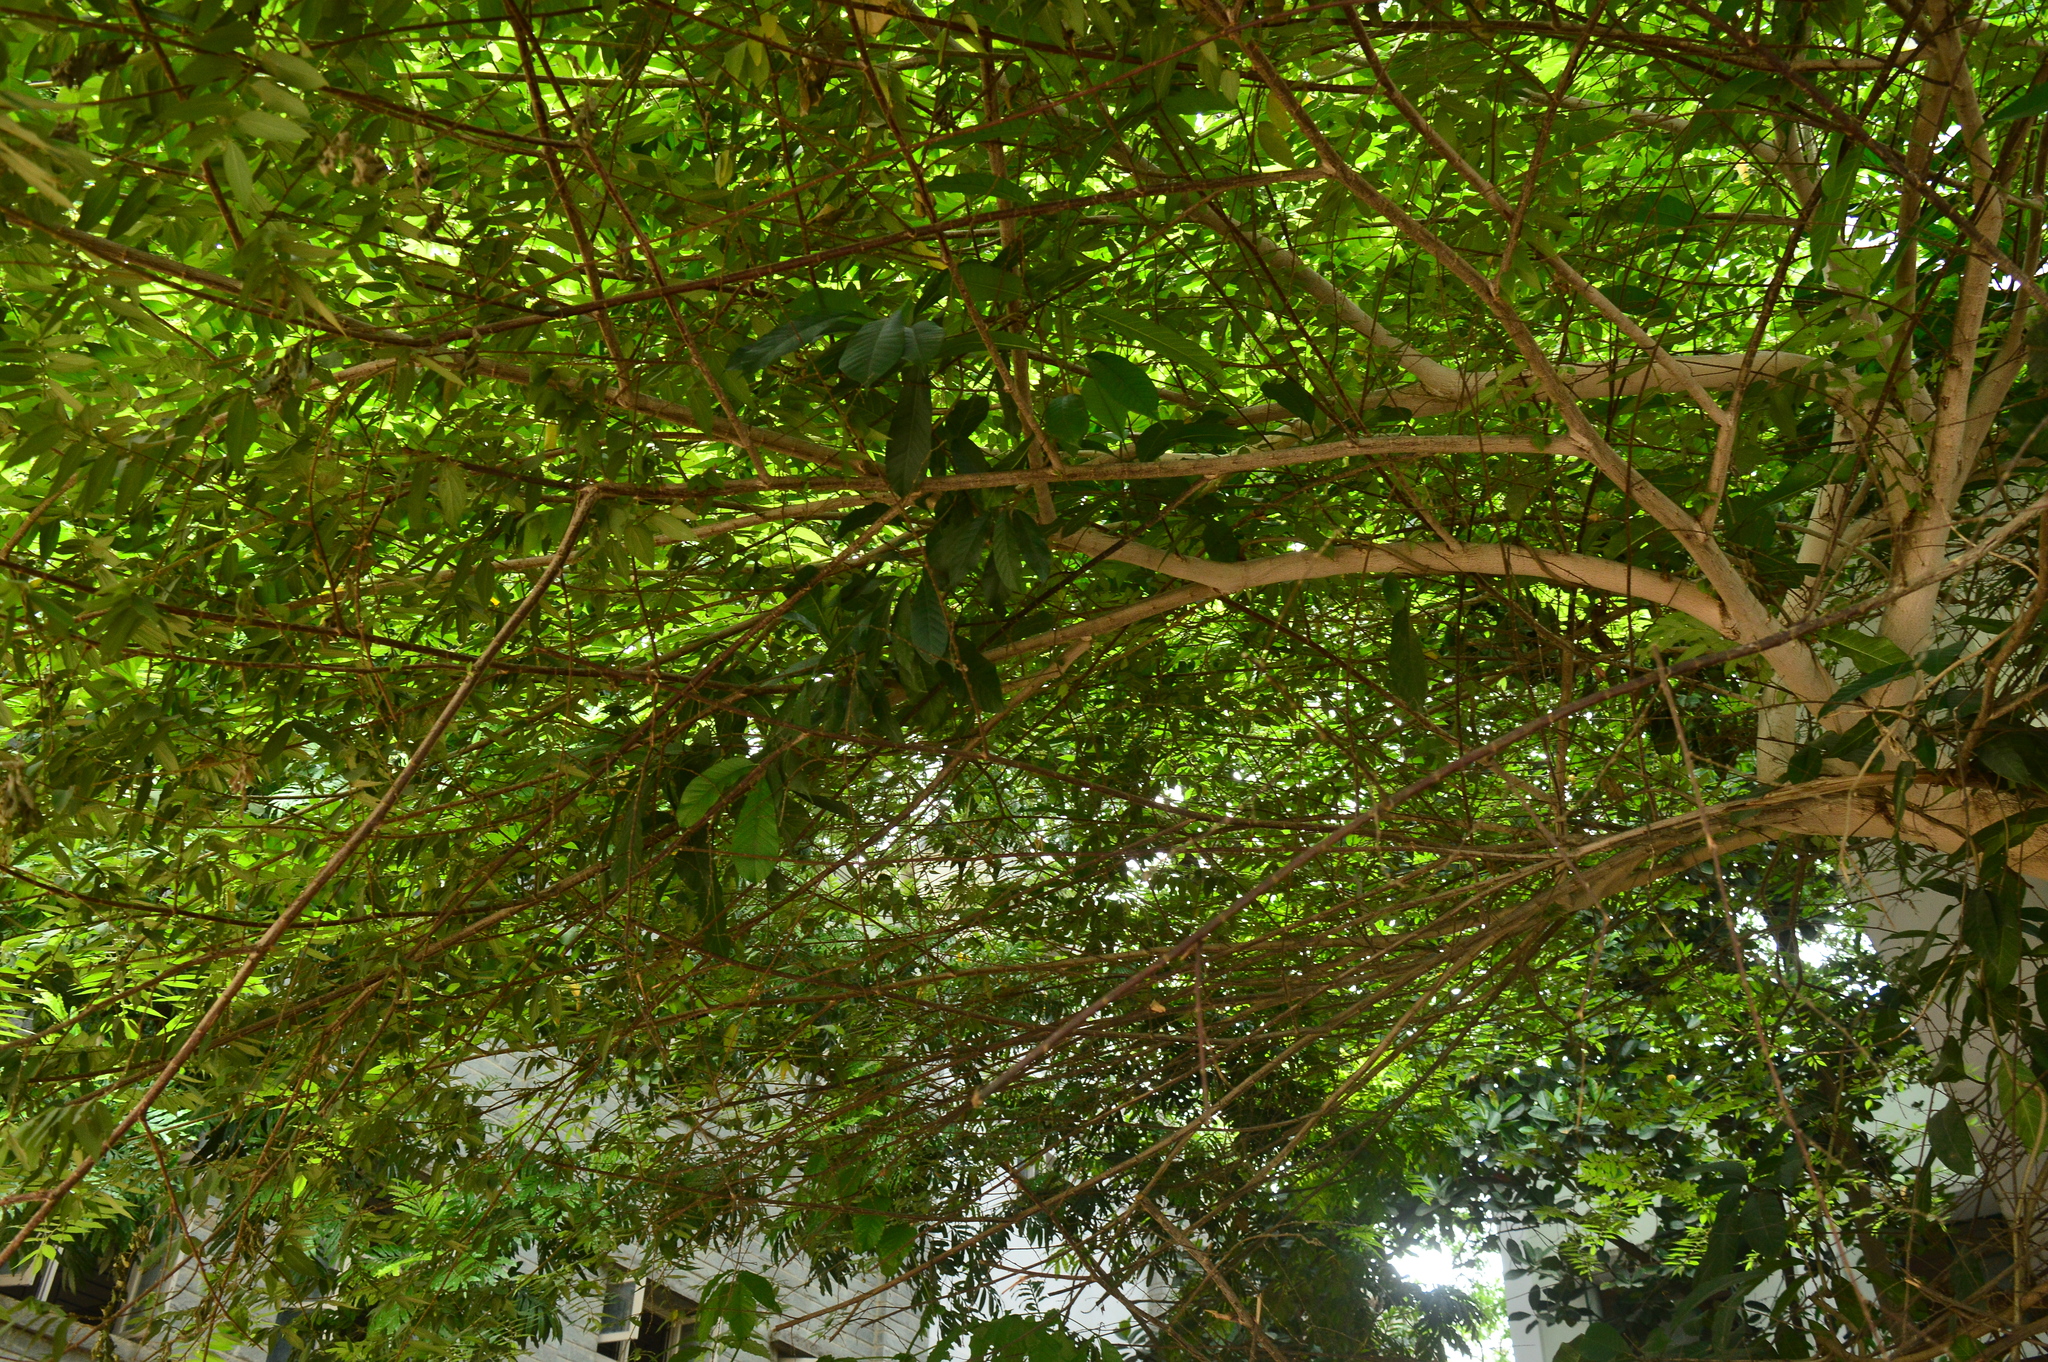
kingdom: Plantae
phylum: Tracheophyta
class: Magnoliopsida
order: Malvales
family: Muntingiaceae
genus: Muntingia
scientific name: Muntingia calabura
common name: Strawberrytree
